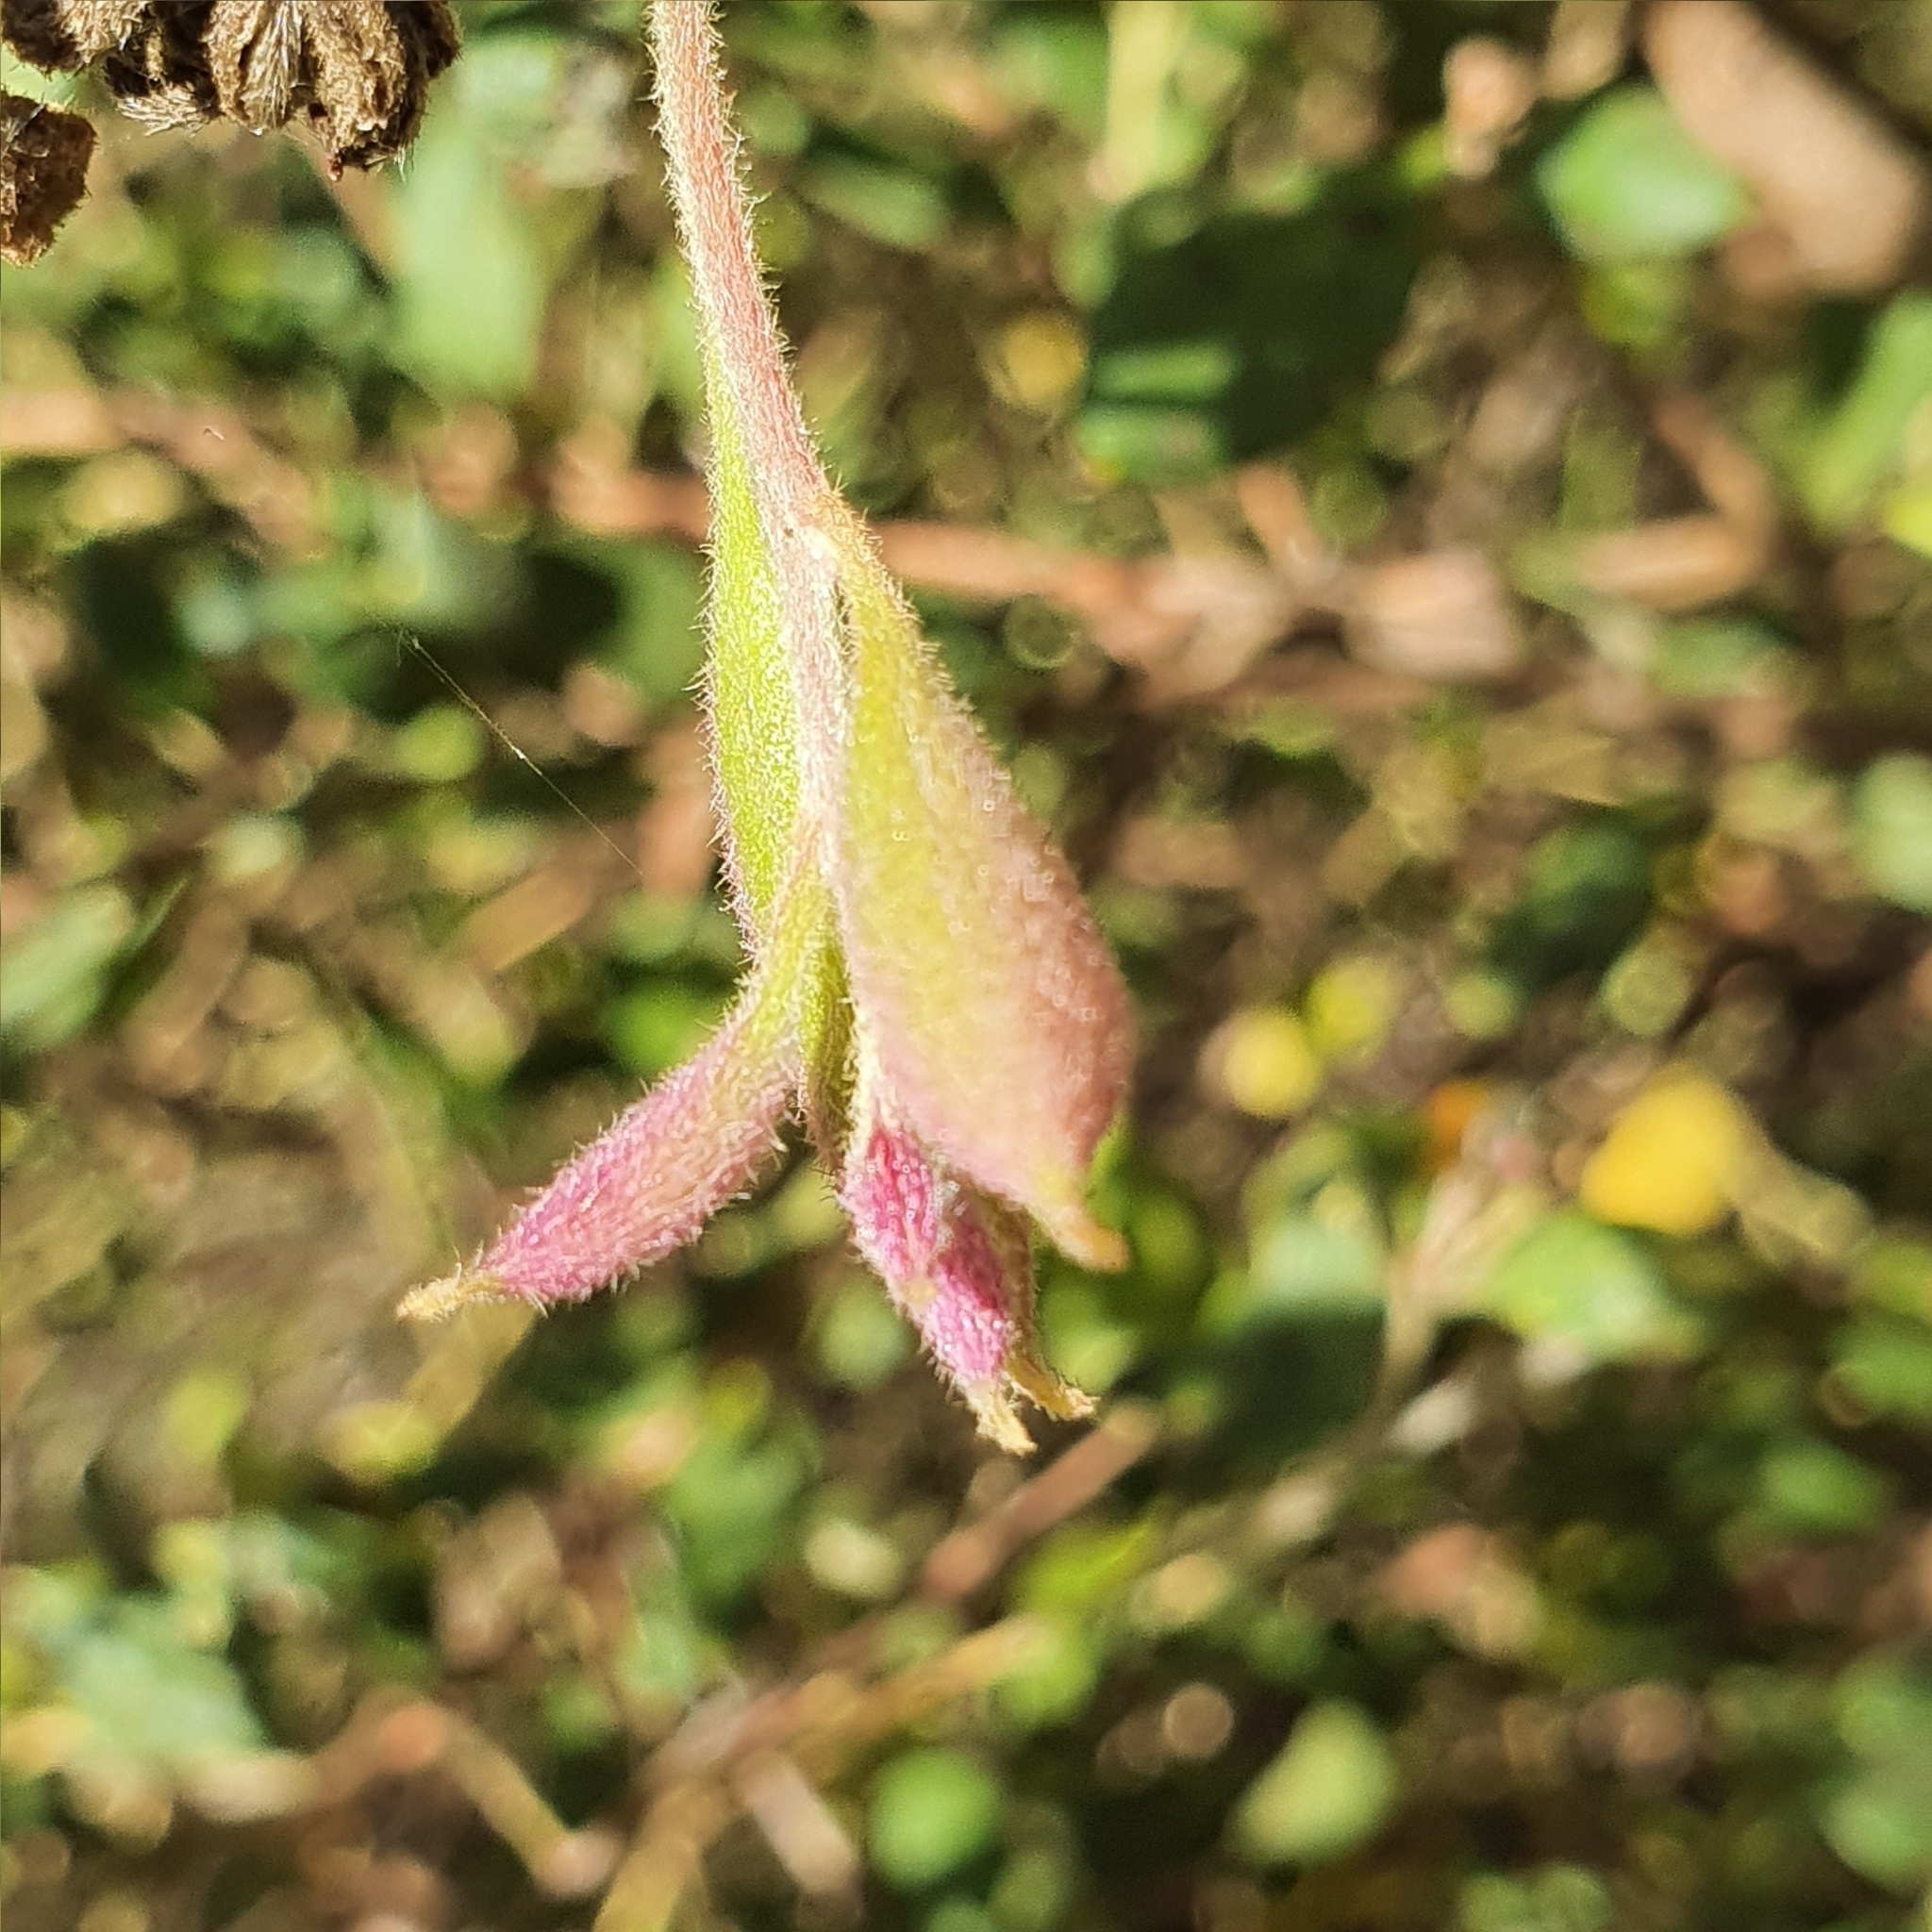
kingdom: Plantae
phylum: Tracheophyta
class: Magnoliopsida
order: Proteales
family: Proteaceae
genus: Grevillea
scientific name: Grevillea mucronulata
